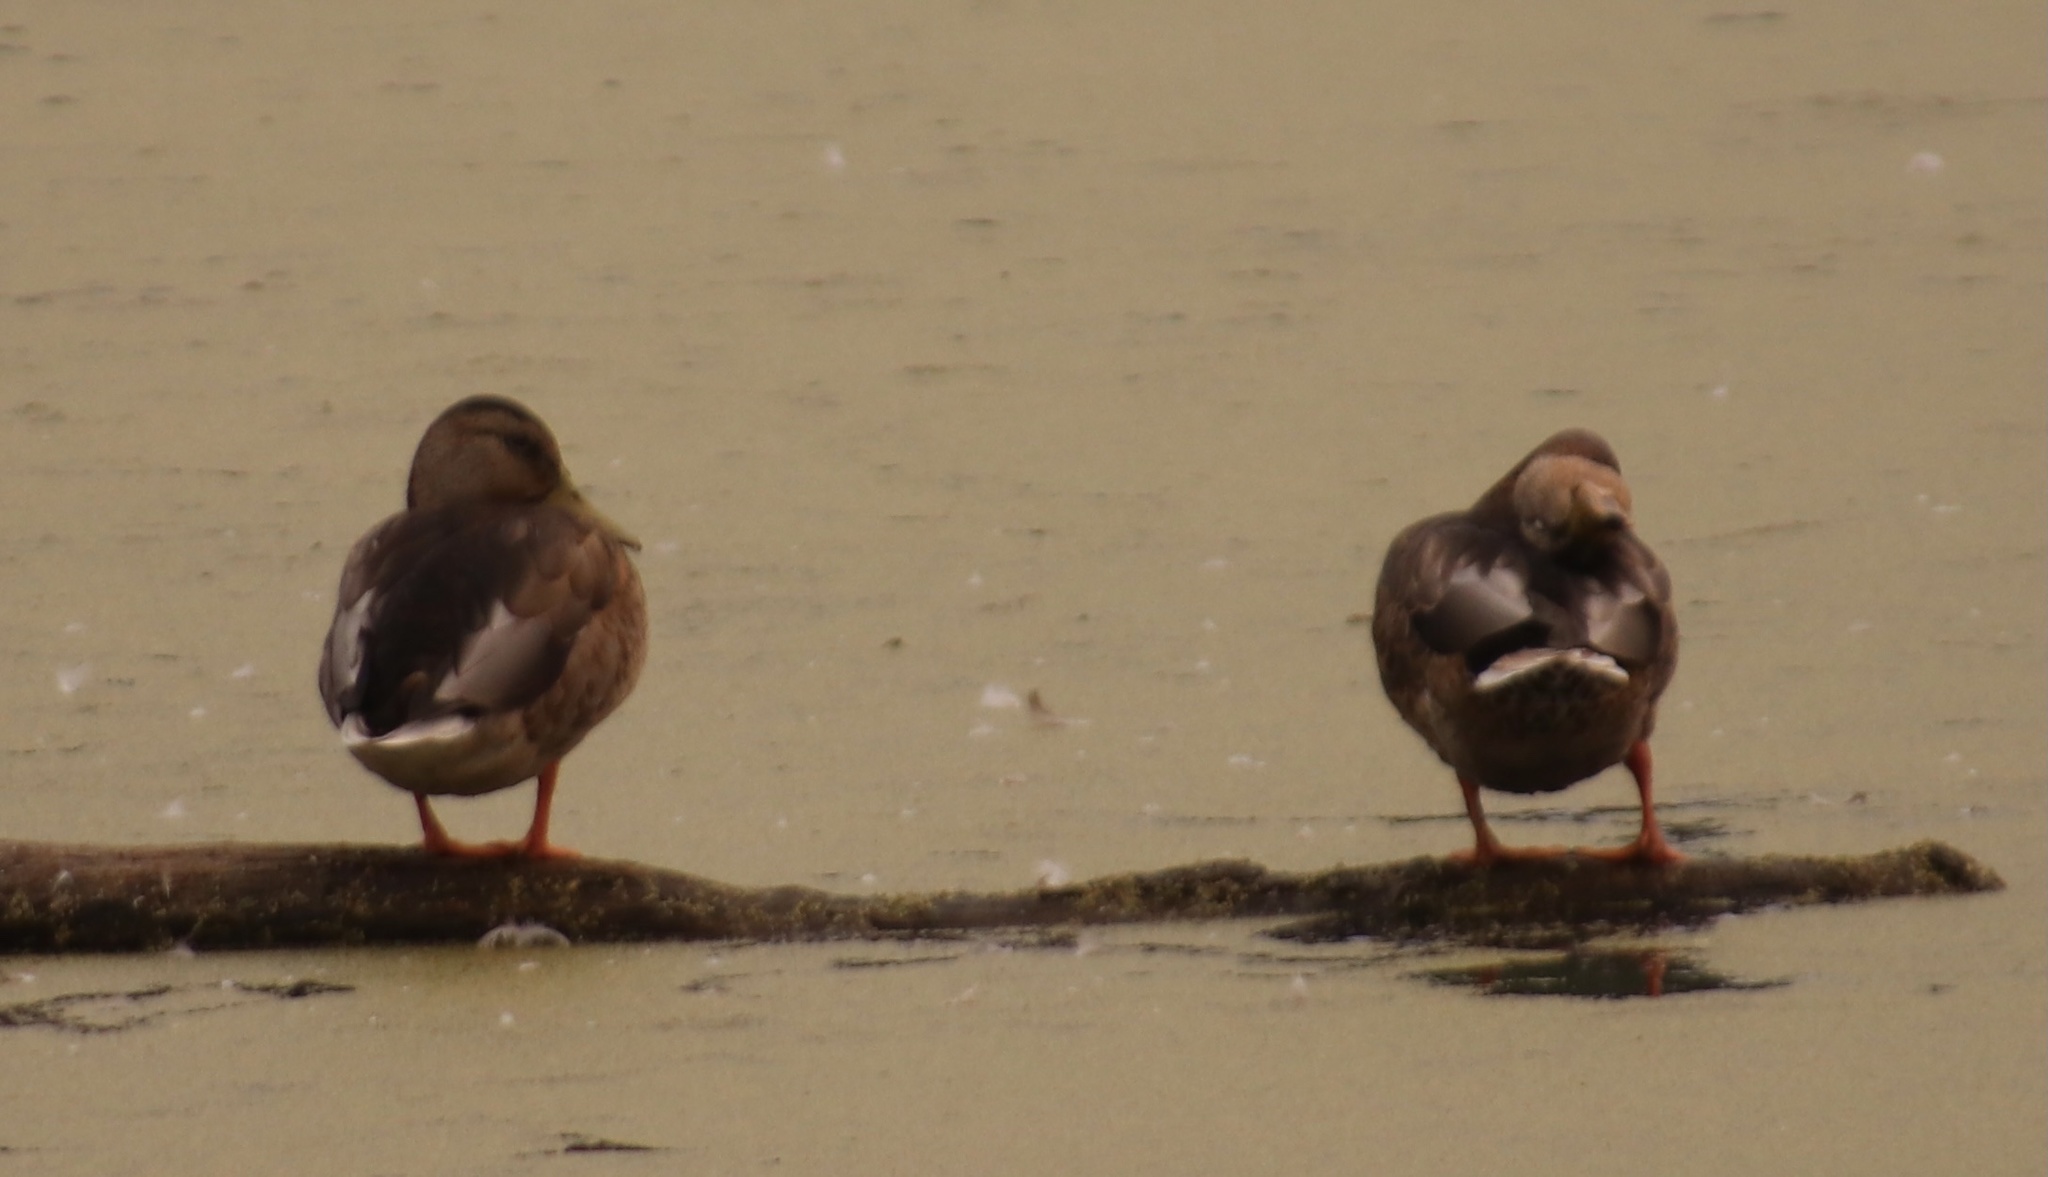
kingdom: Animalia
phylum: Chordata
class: Aves
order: Anseriformes
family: Anatidae
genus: Anas
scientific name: Anas platyrhynchos
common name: Mallard
